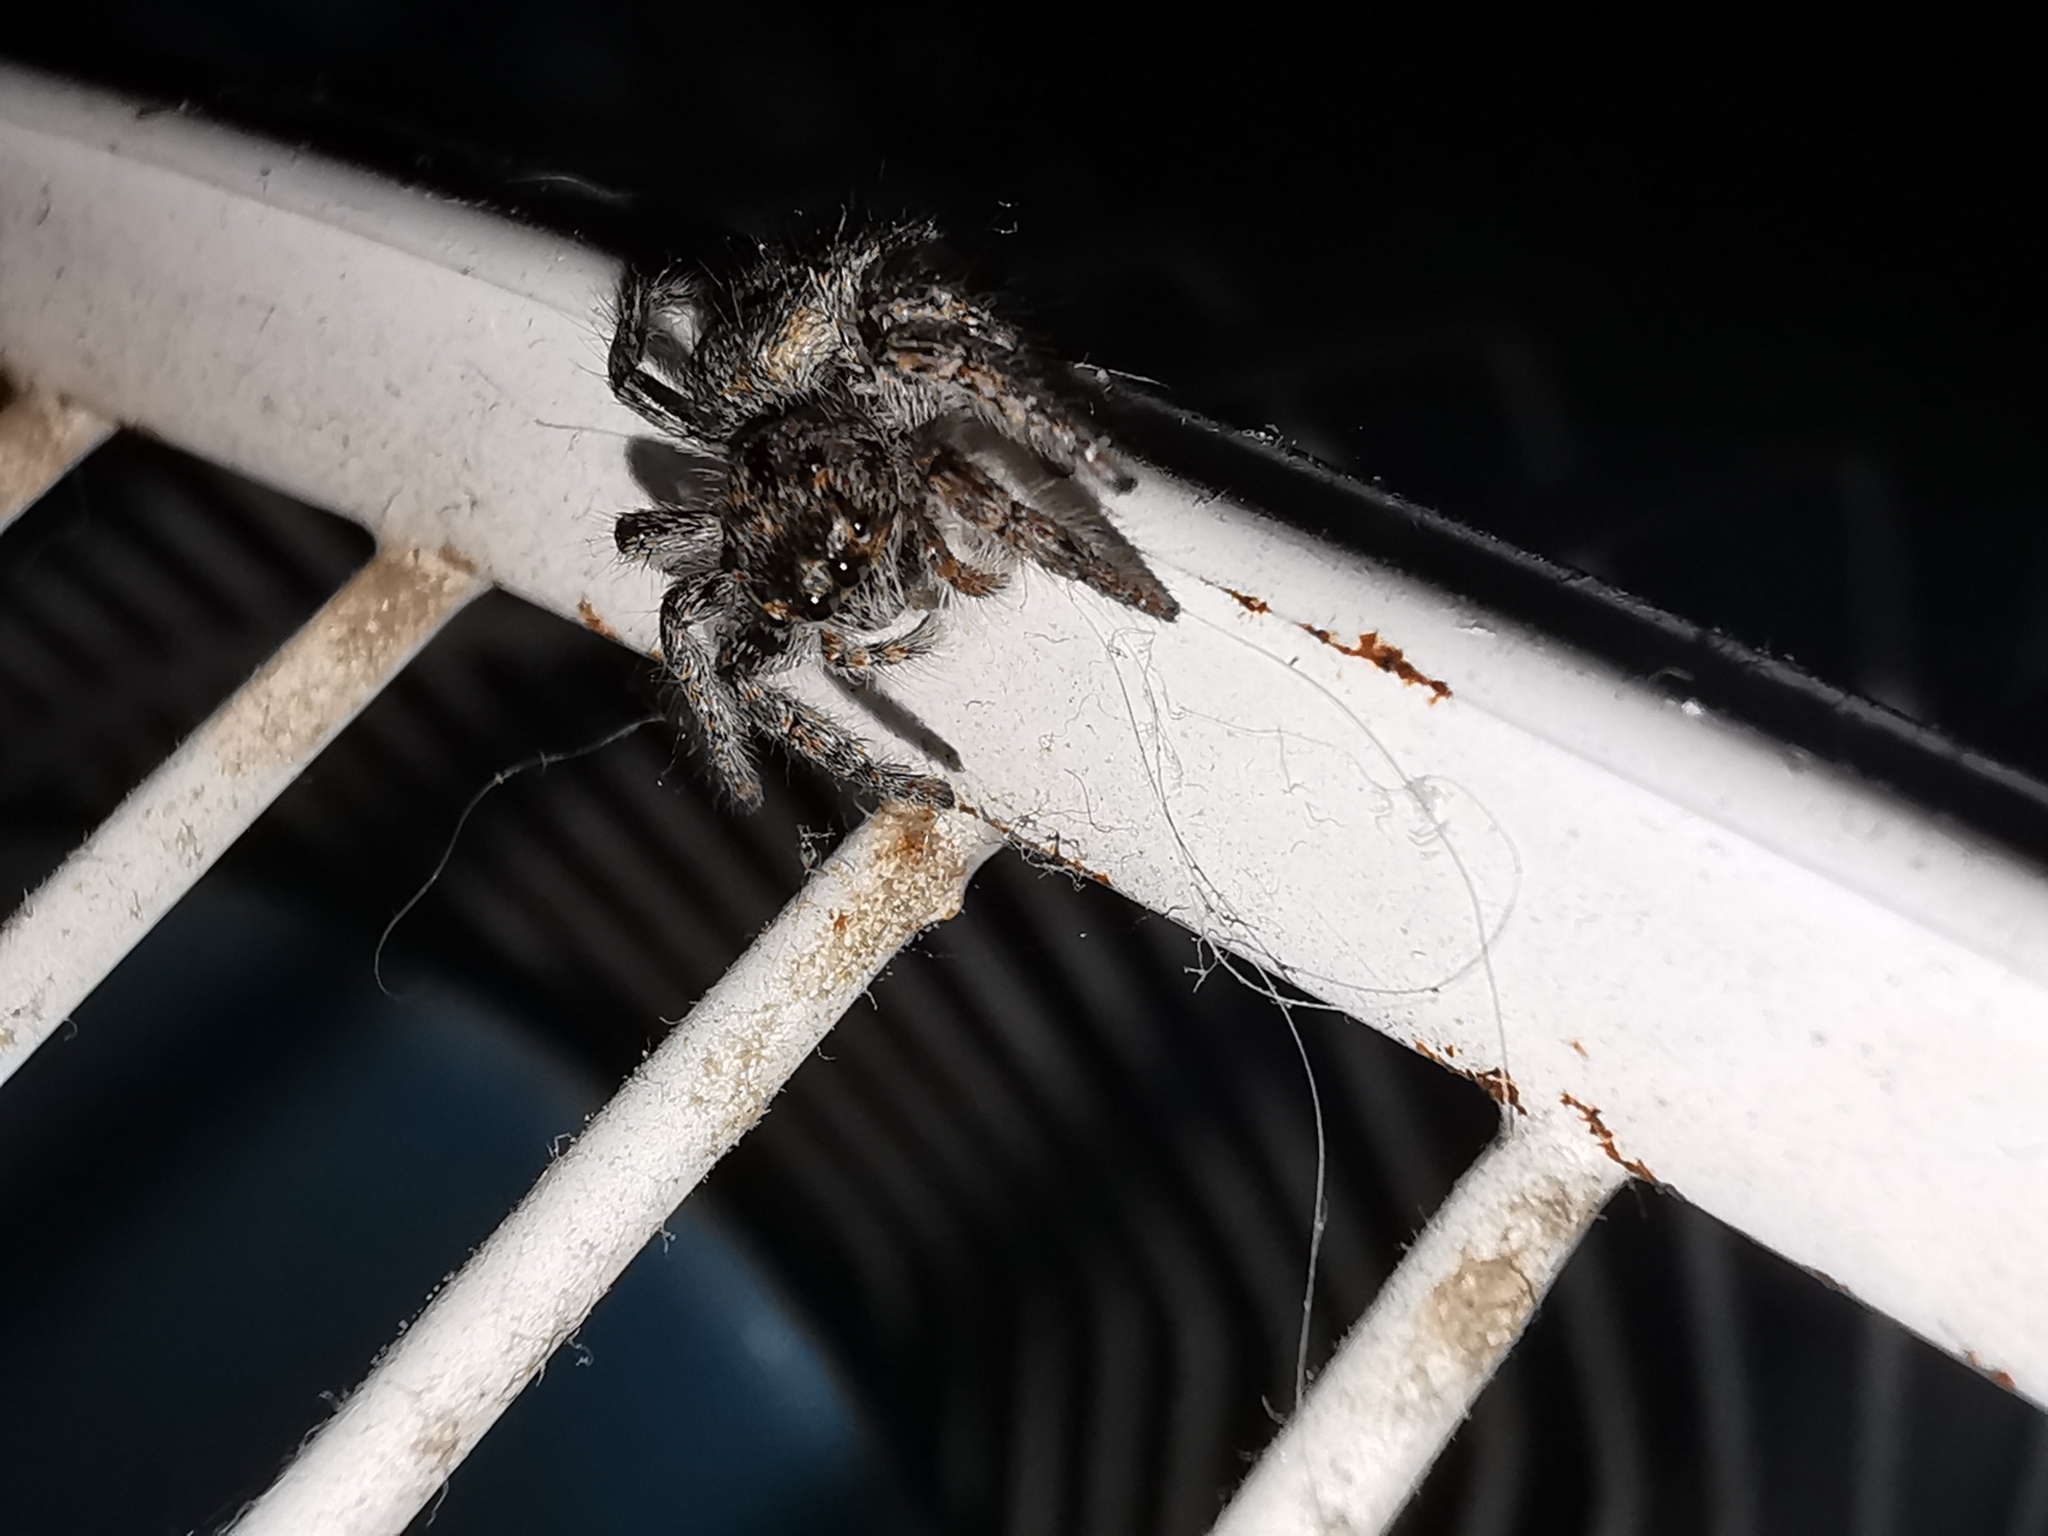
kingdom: Animalia
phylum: Arthropoda
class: Arachnida
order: Araneae
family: Salticidae
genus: Philaeus
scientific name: Philaeus chrysops
